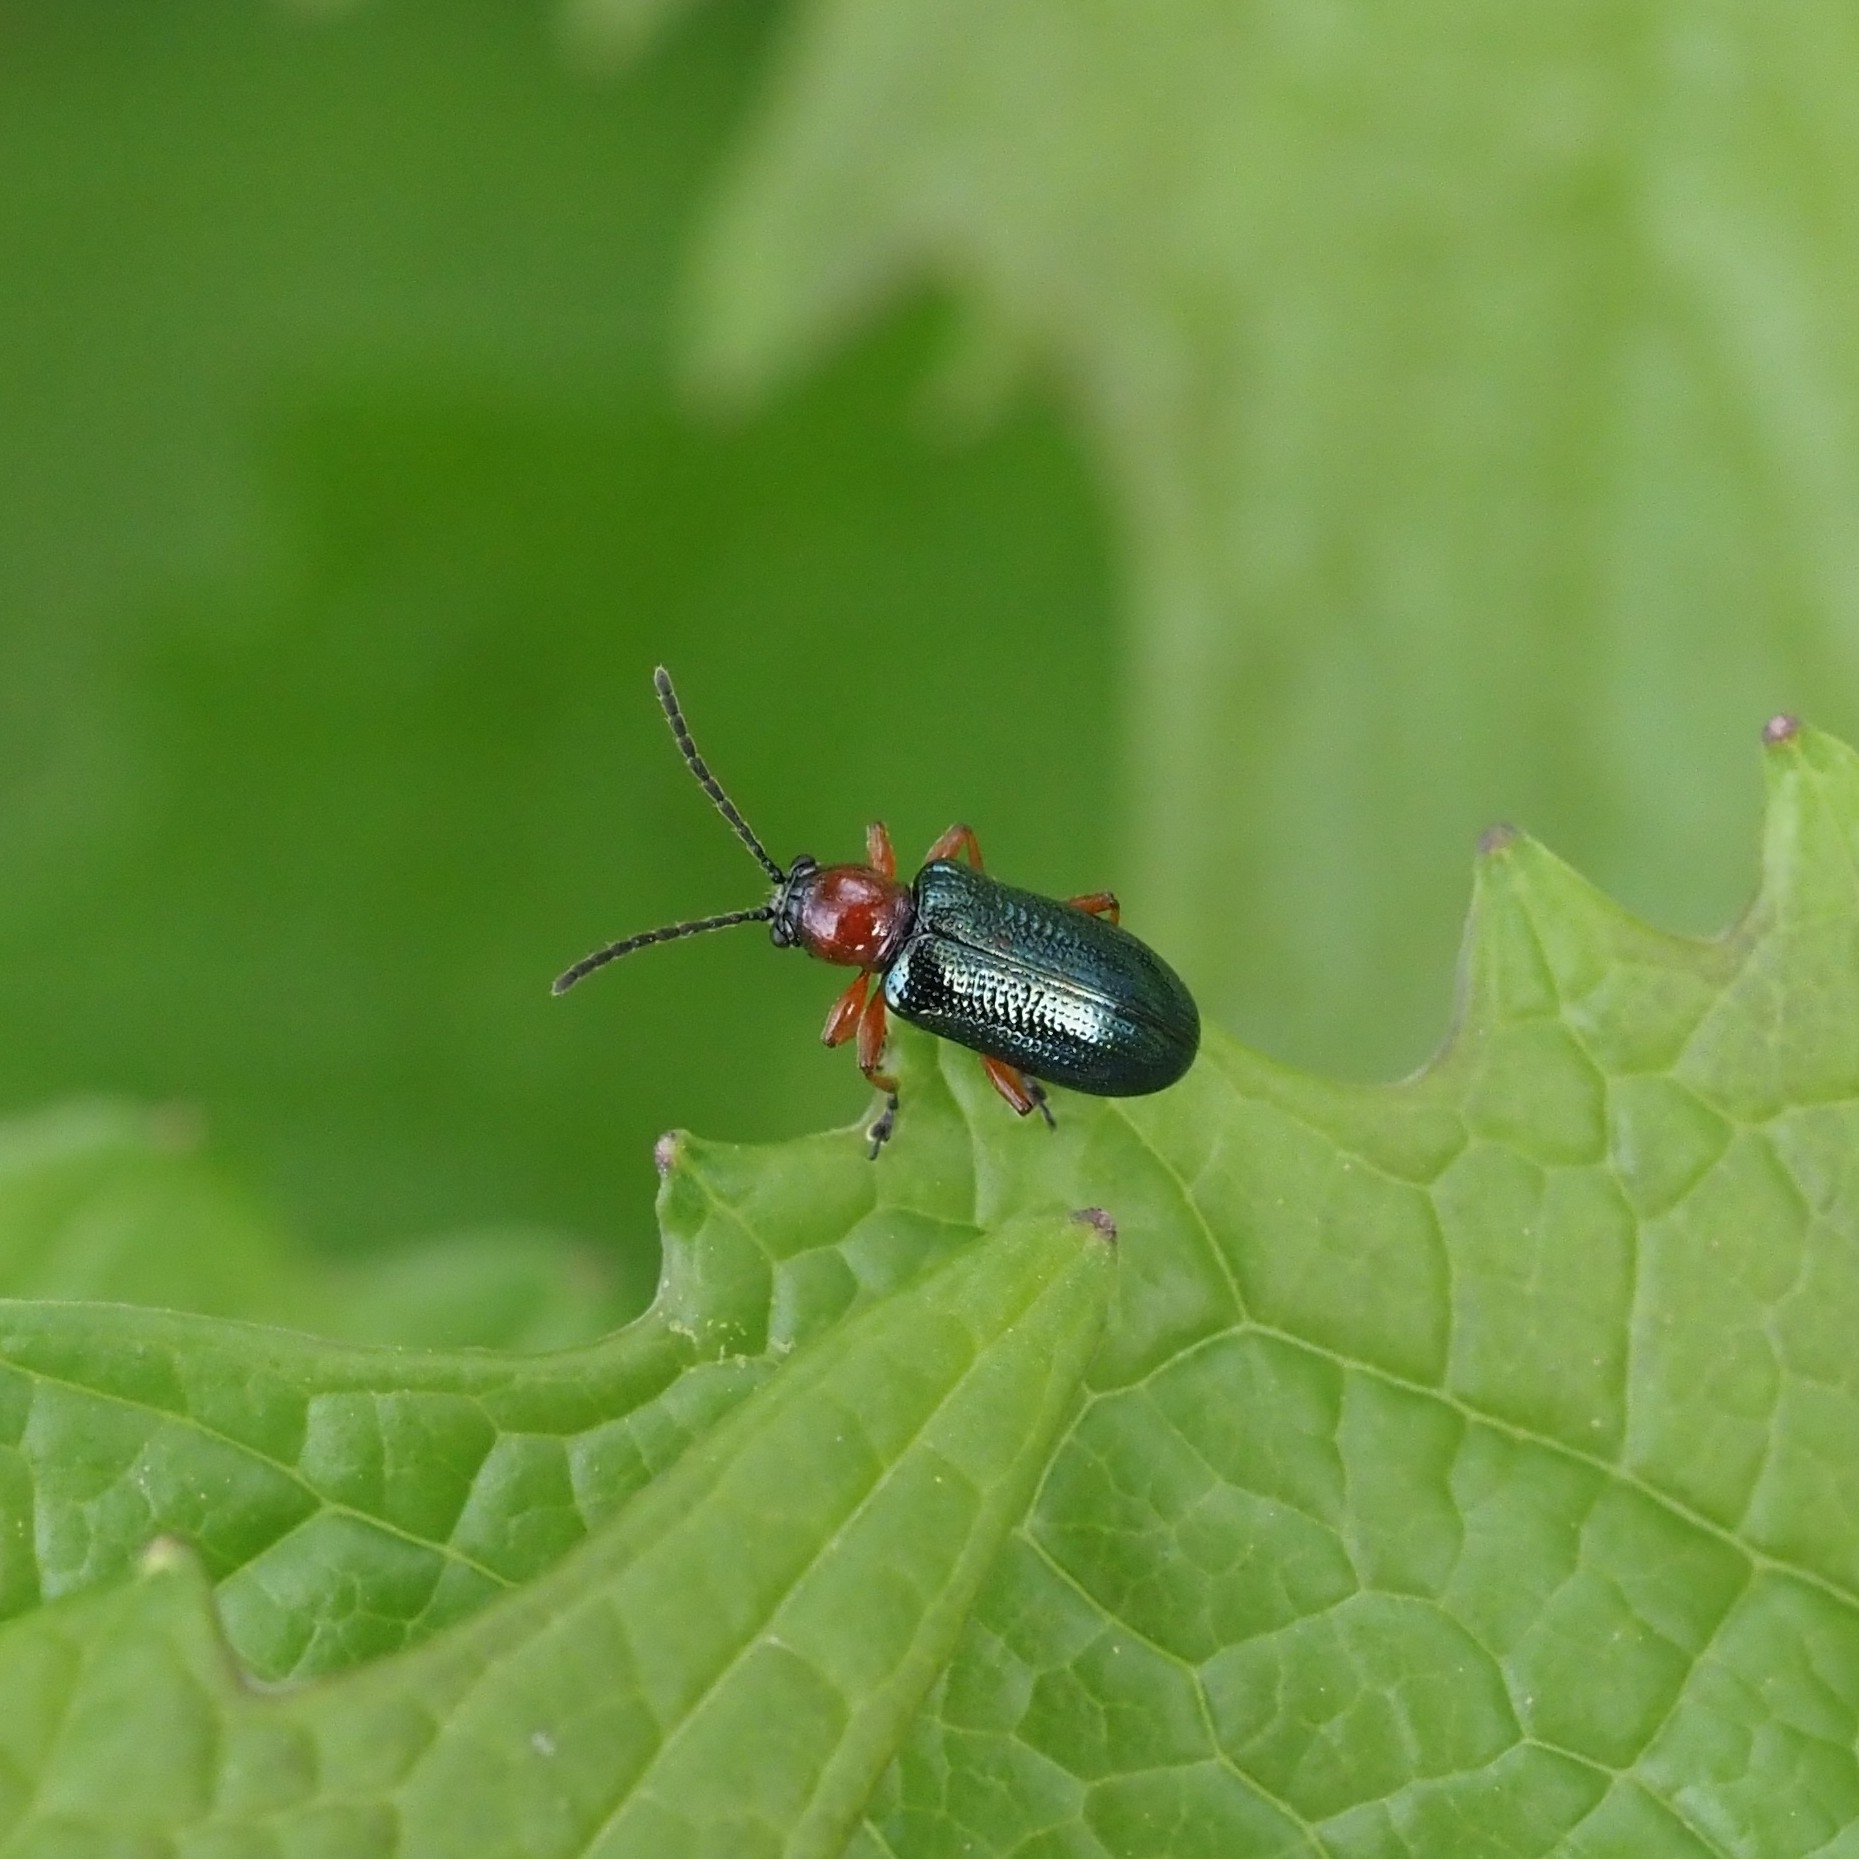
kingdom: Animalia
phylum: Arthropoda
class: Insecta
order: Coleoptera
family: Chrysomelidae
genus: Oulema
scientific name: Oulema
